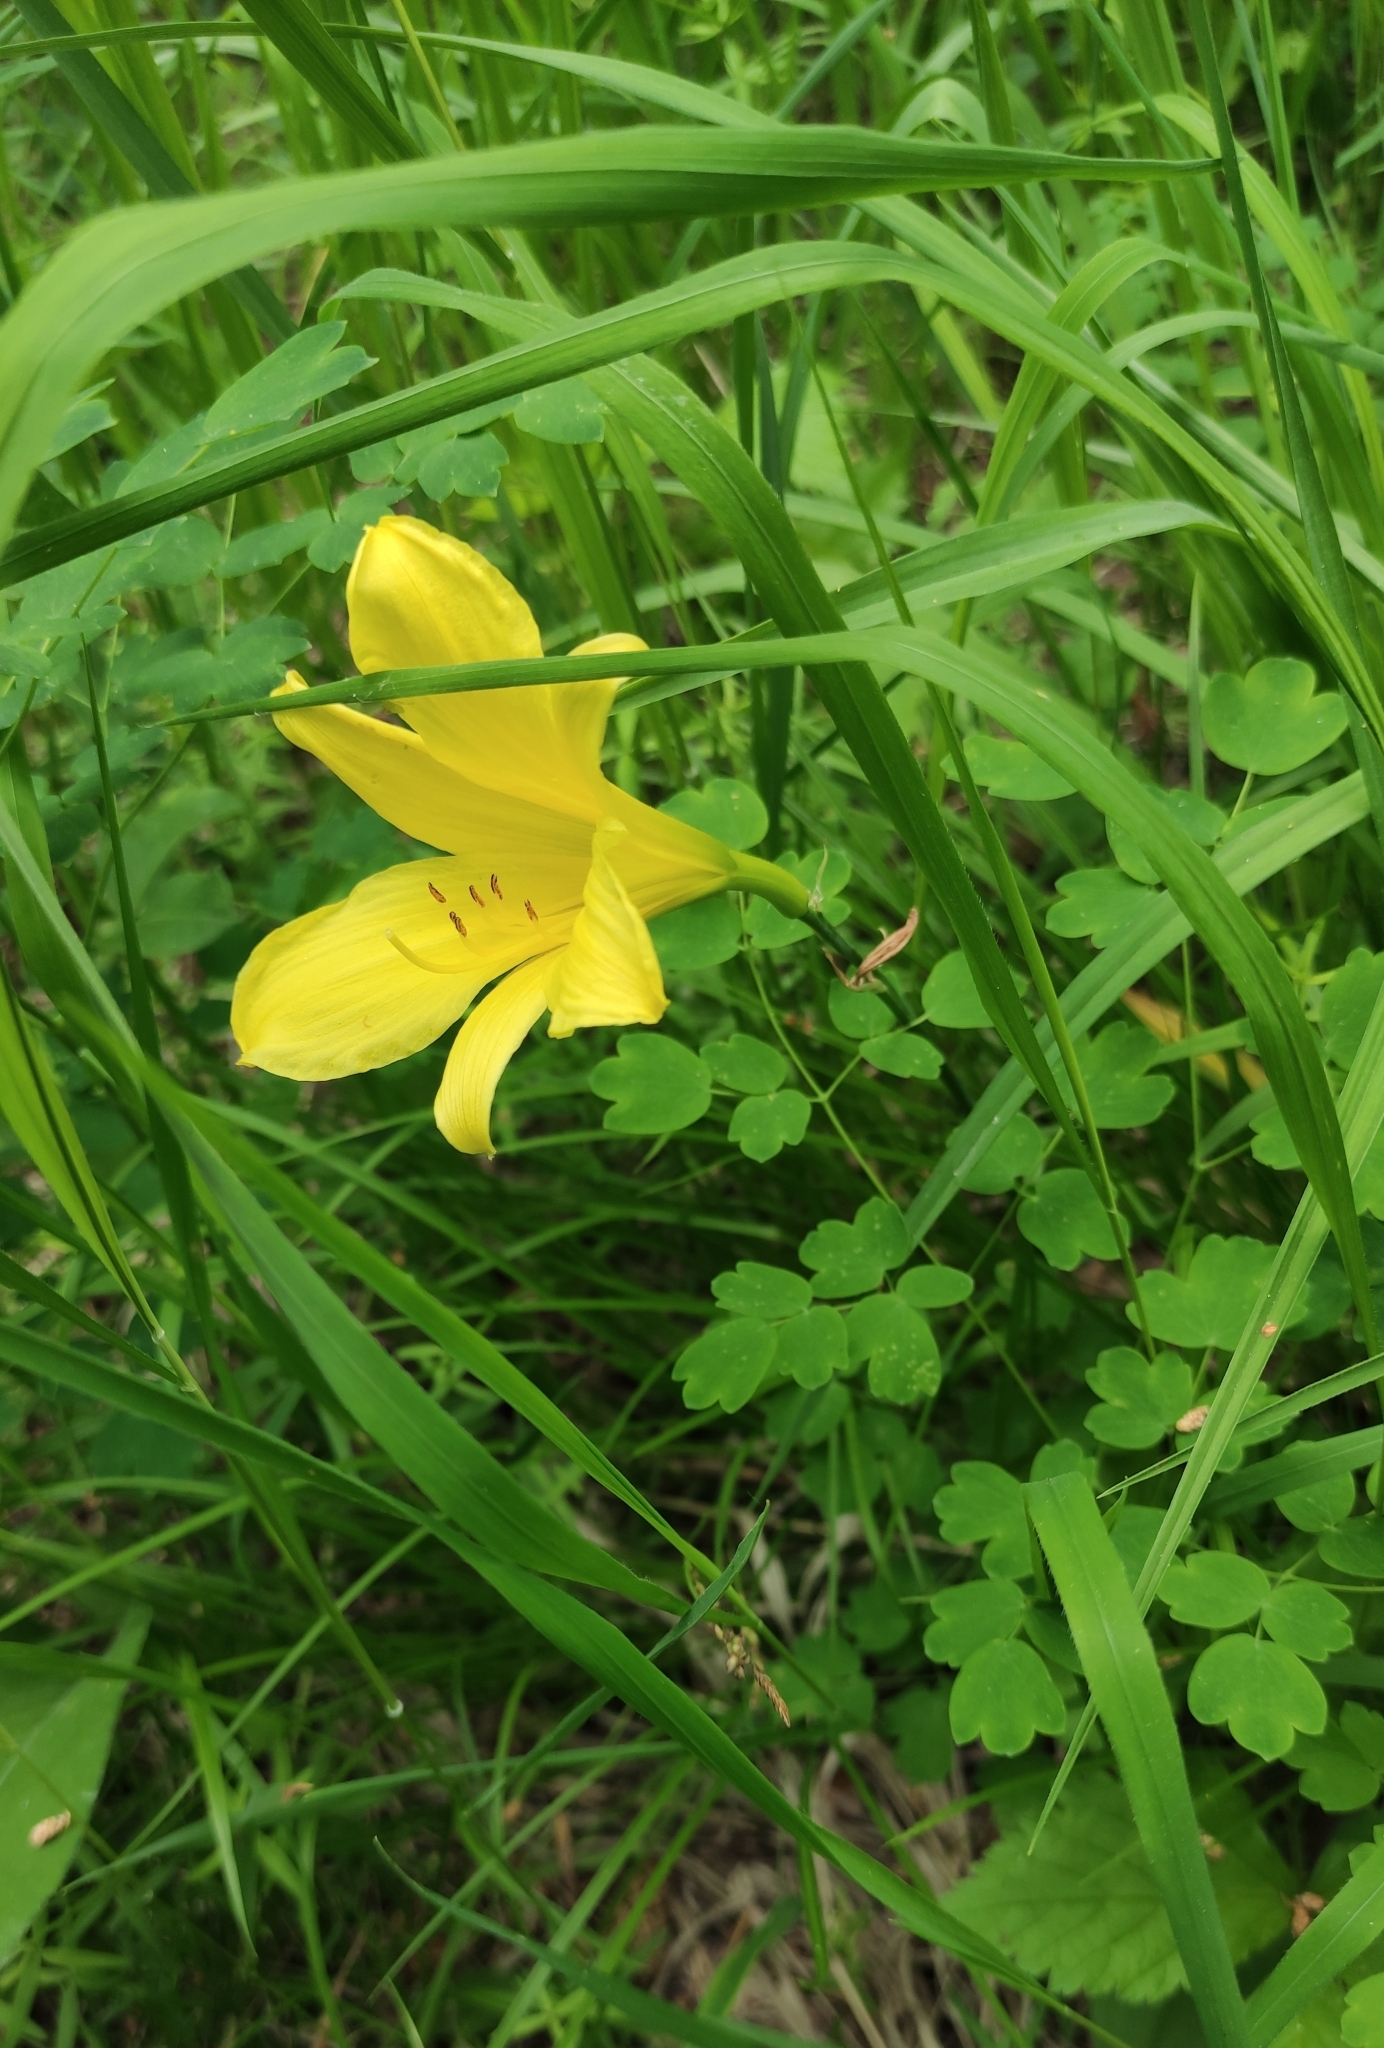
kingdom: Plantae
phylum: Tracheophyta
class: Liliopsida
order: Asparagales
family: Asphodelaceae
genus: Hemerocallis
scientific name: Hemerocallis minor
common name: Small daylily
